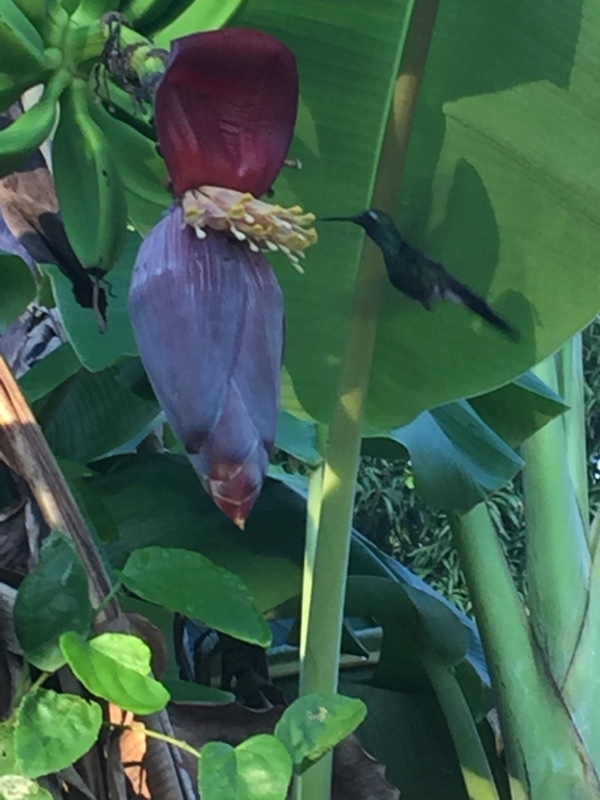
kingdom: Animalia
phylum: Chordata
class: Aves
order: Apodiformes
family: Trochilidae
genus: Riccordia
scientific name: Riccordia ricordii
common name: Cuban emerald
